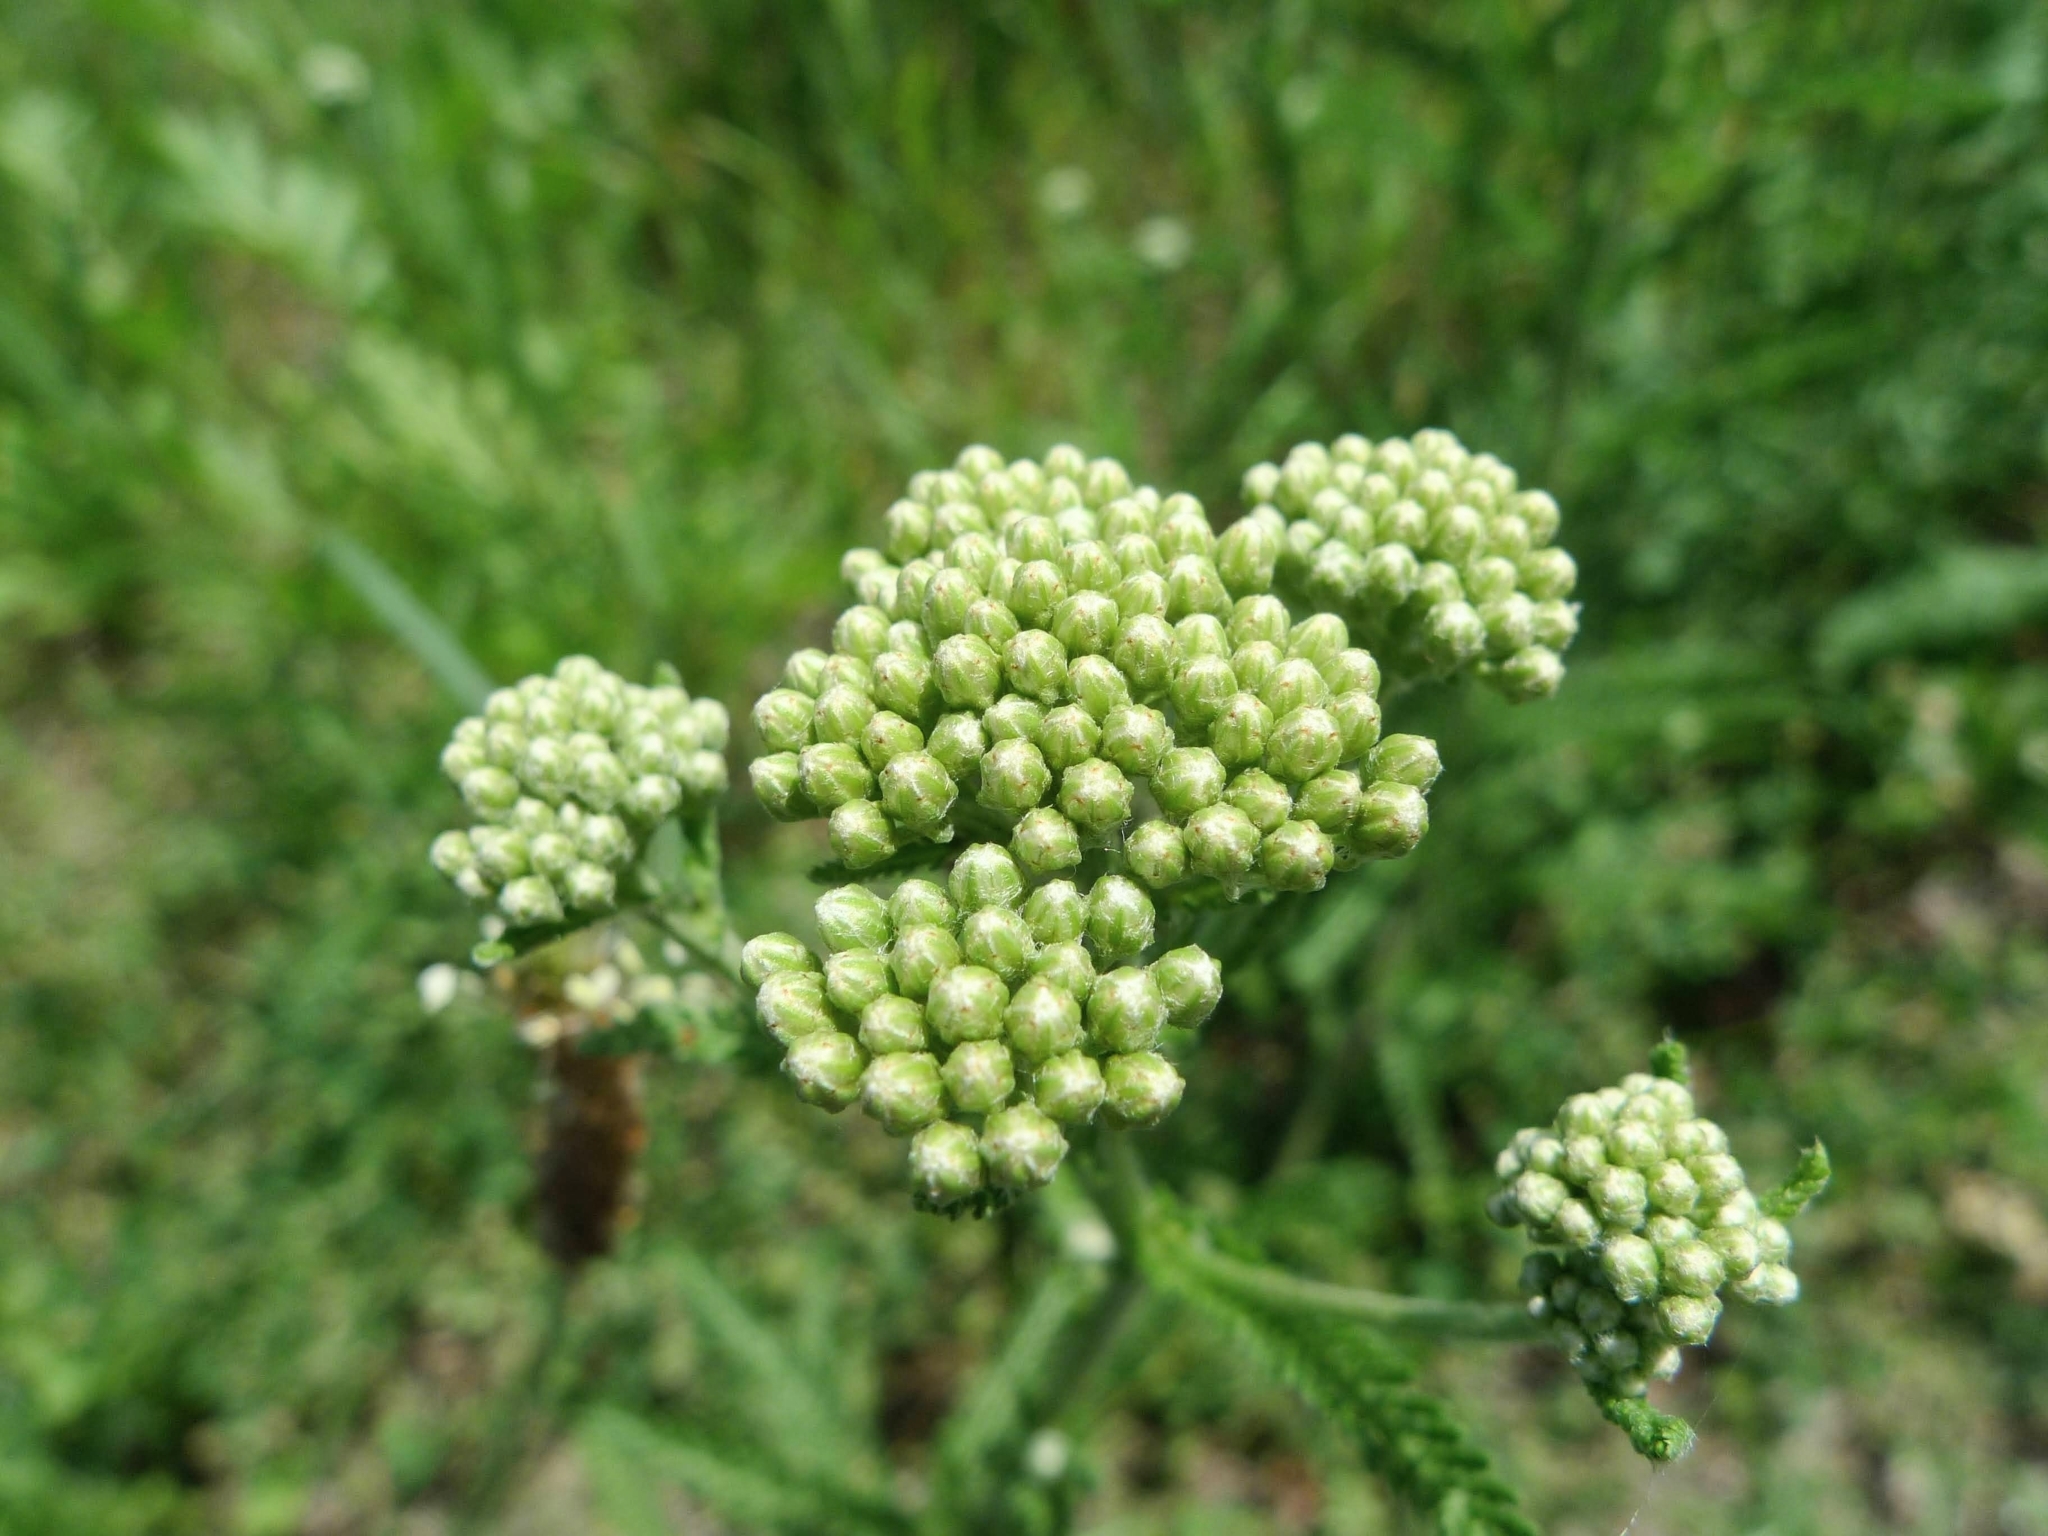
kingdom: Plantae
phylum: Tracheophyta
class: Magnoliopsida
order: Asterales
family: Asteraceae
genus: Achillea
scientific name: Achillea millefolium
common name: Yarrow
